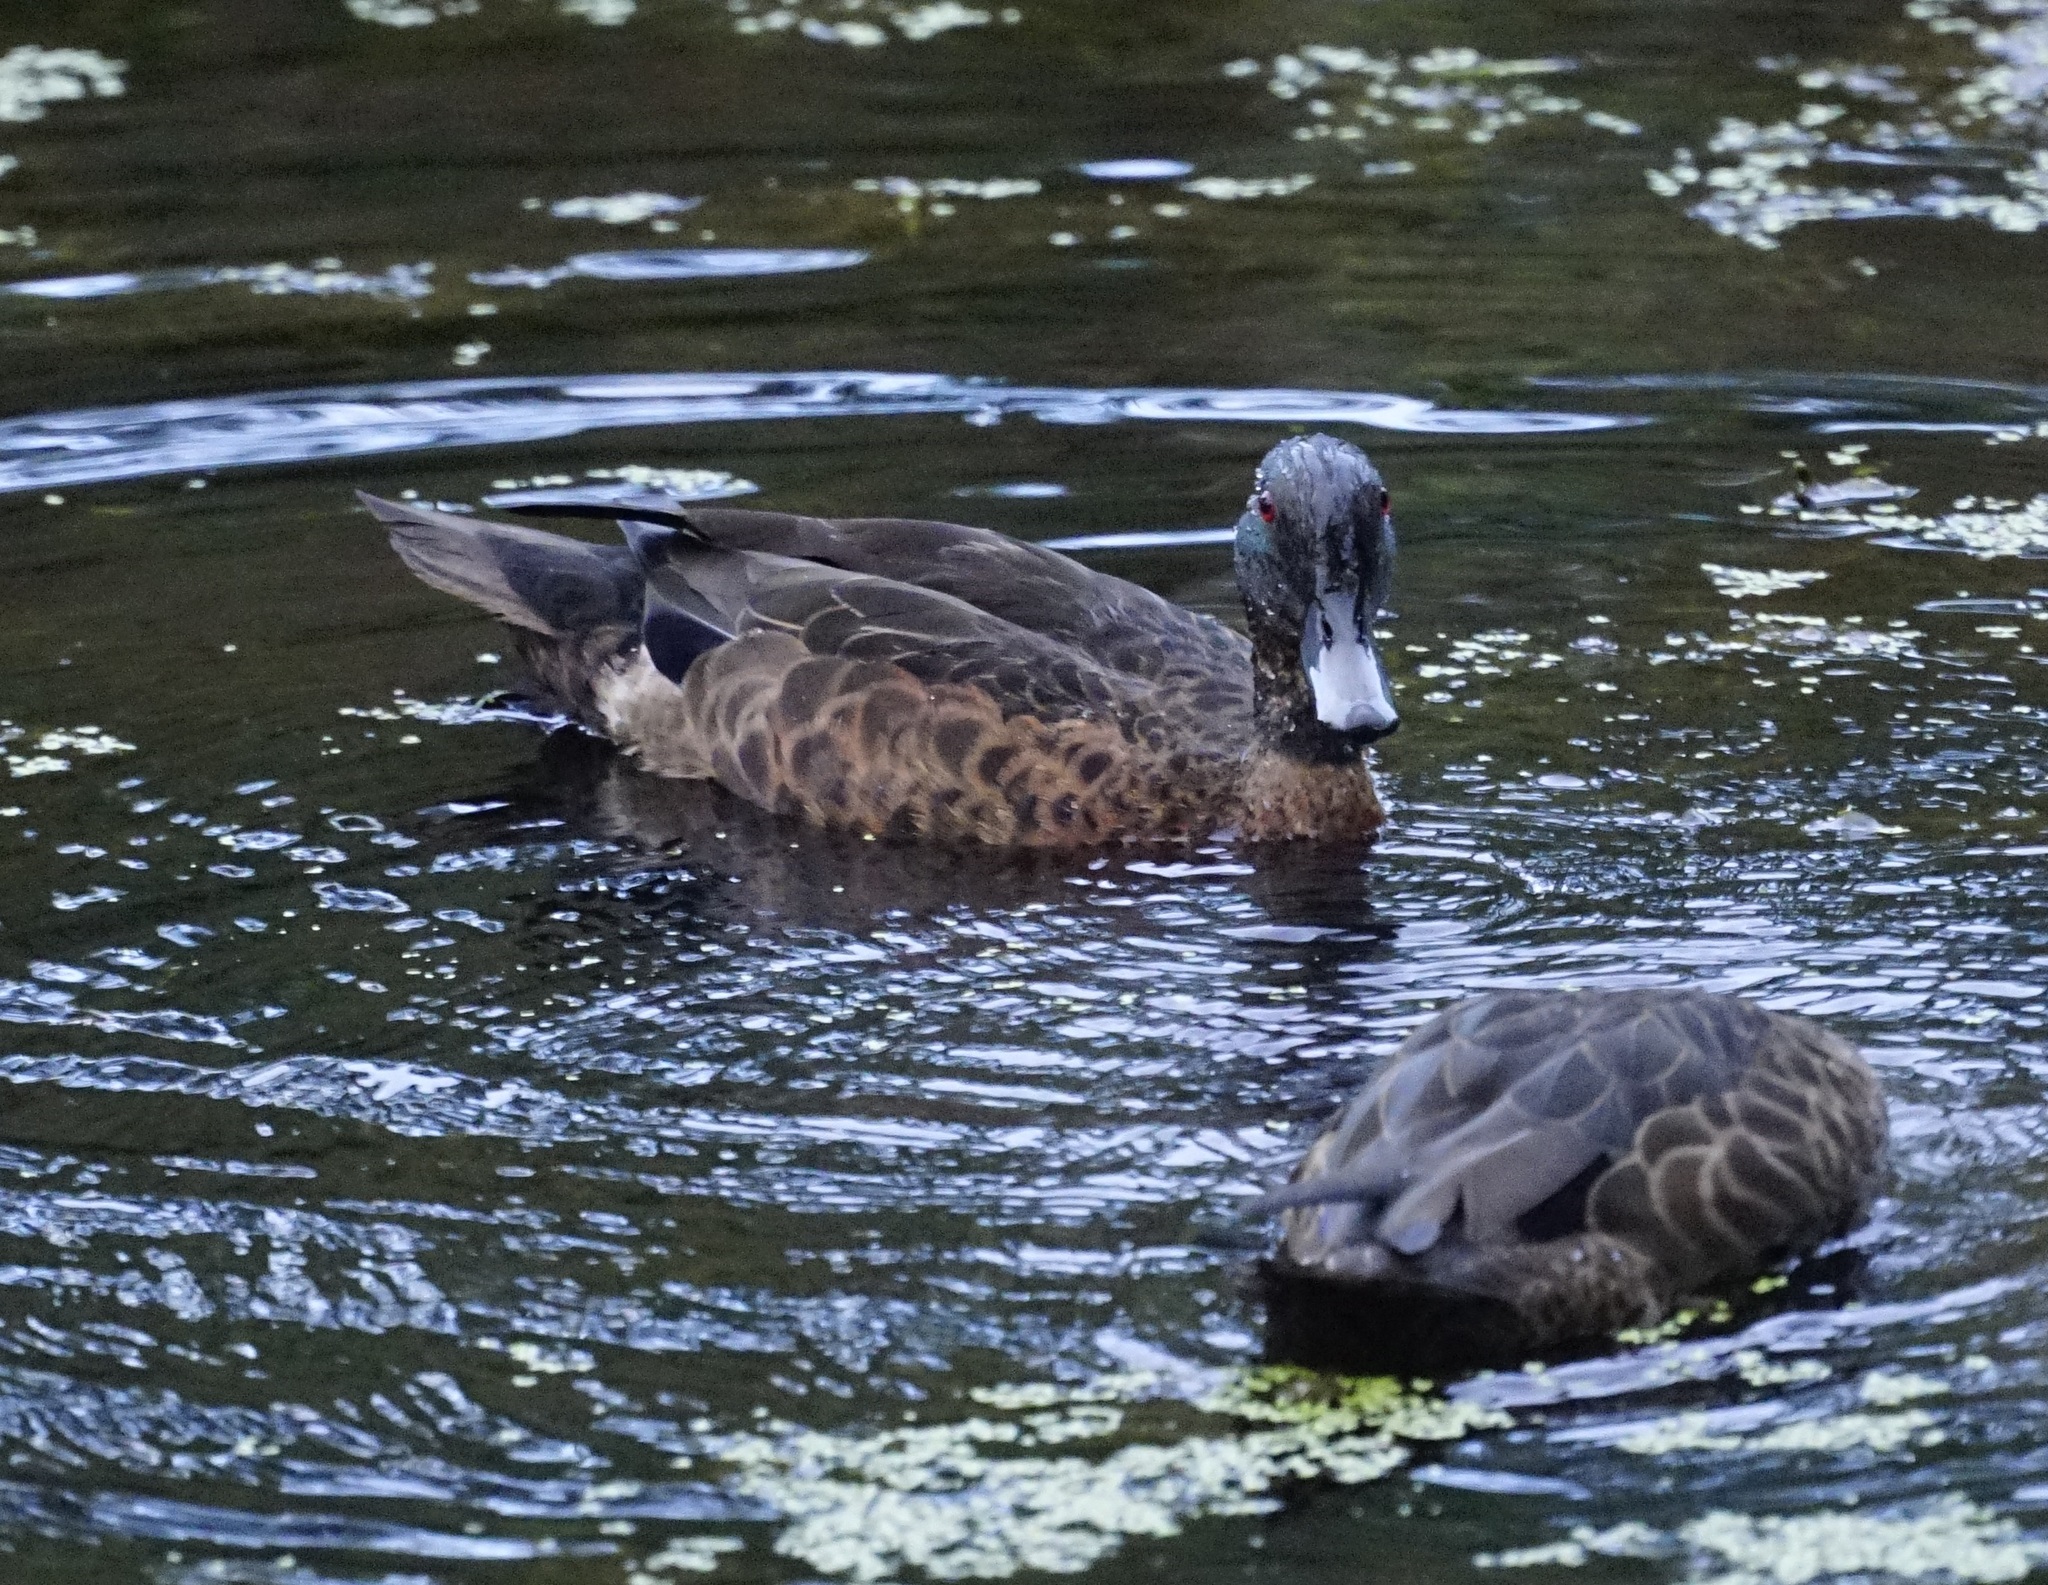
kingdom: Animalia
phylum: Chordata
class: Aves
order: Anseriformes
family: Anatidae
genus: Anas
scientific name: Anas castanea
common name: Chestnut teal
